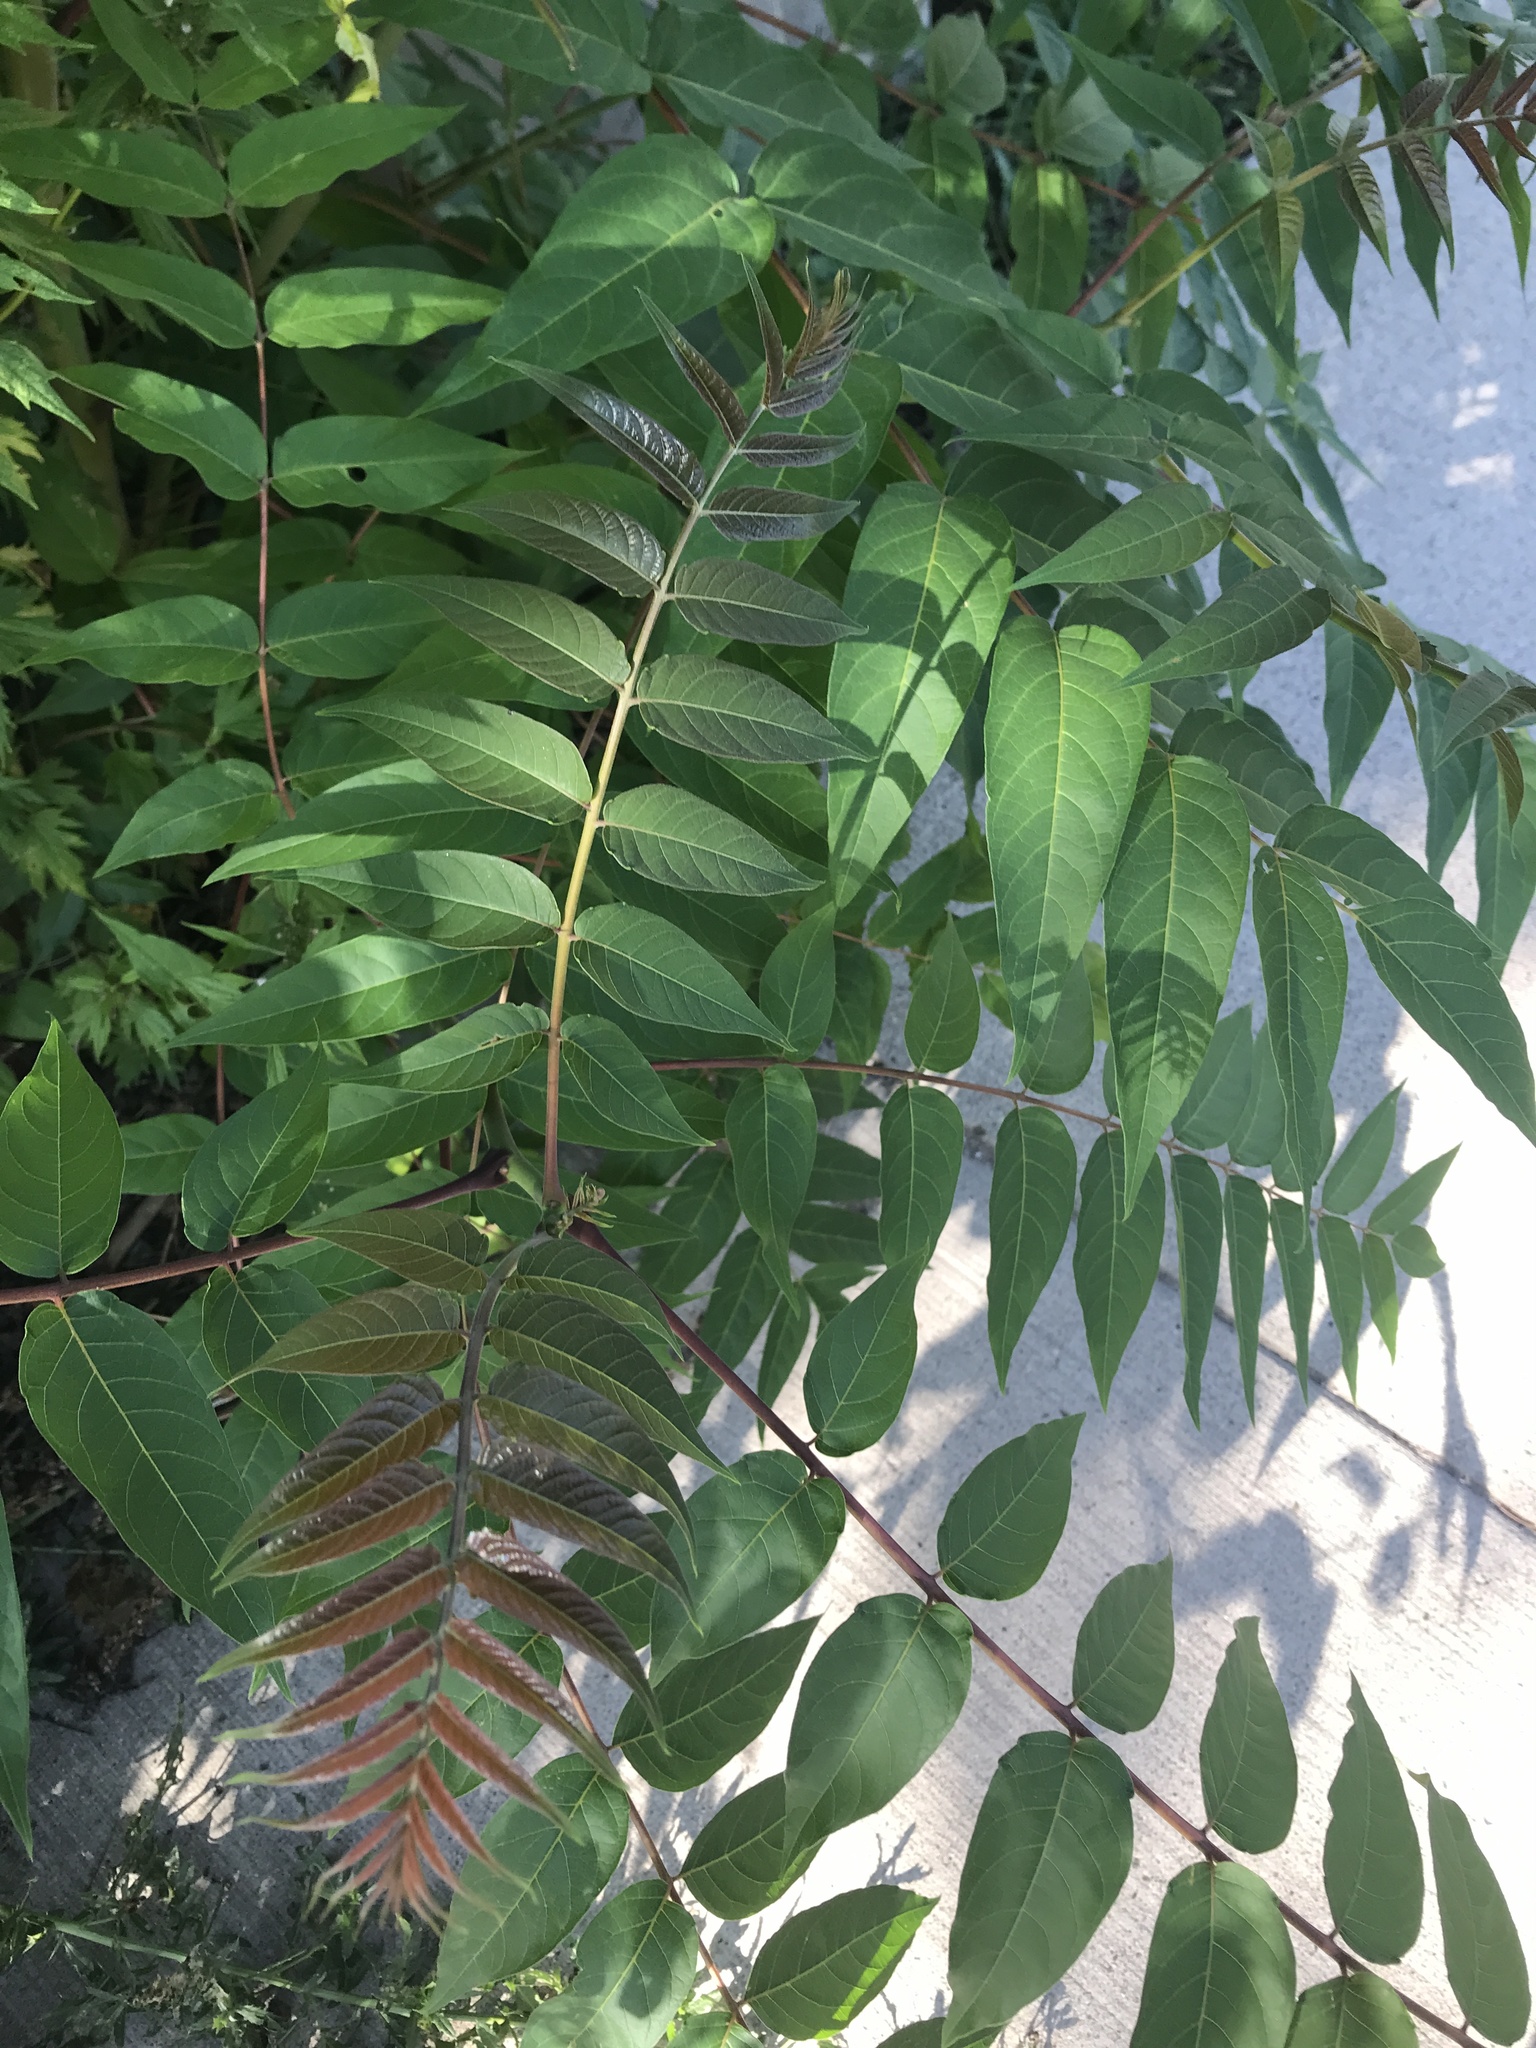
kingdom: Plantae
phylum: Tracheophyta
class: Magnoliopsida
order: Sapindales
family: Simaroubaceae
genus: Ailanthus
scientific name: Ailanthus altissima
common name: Tree-of-heaven
